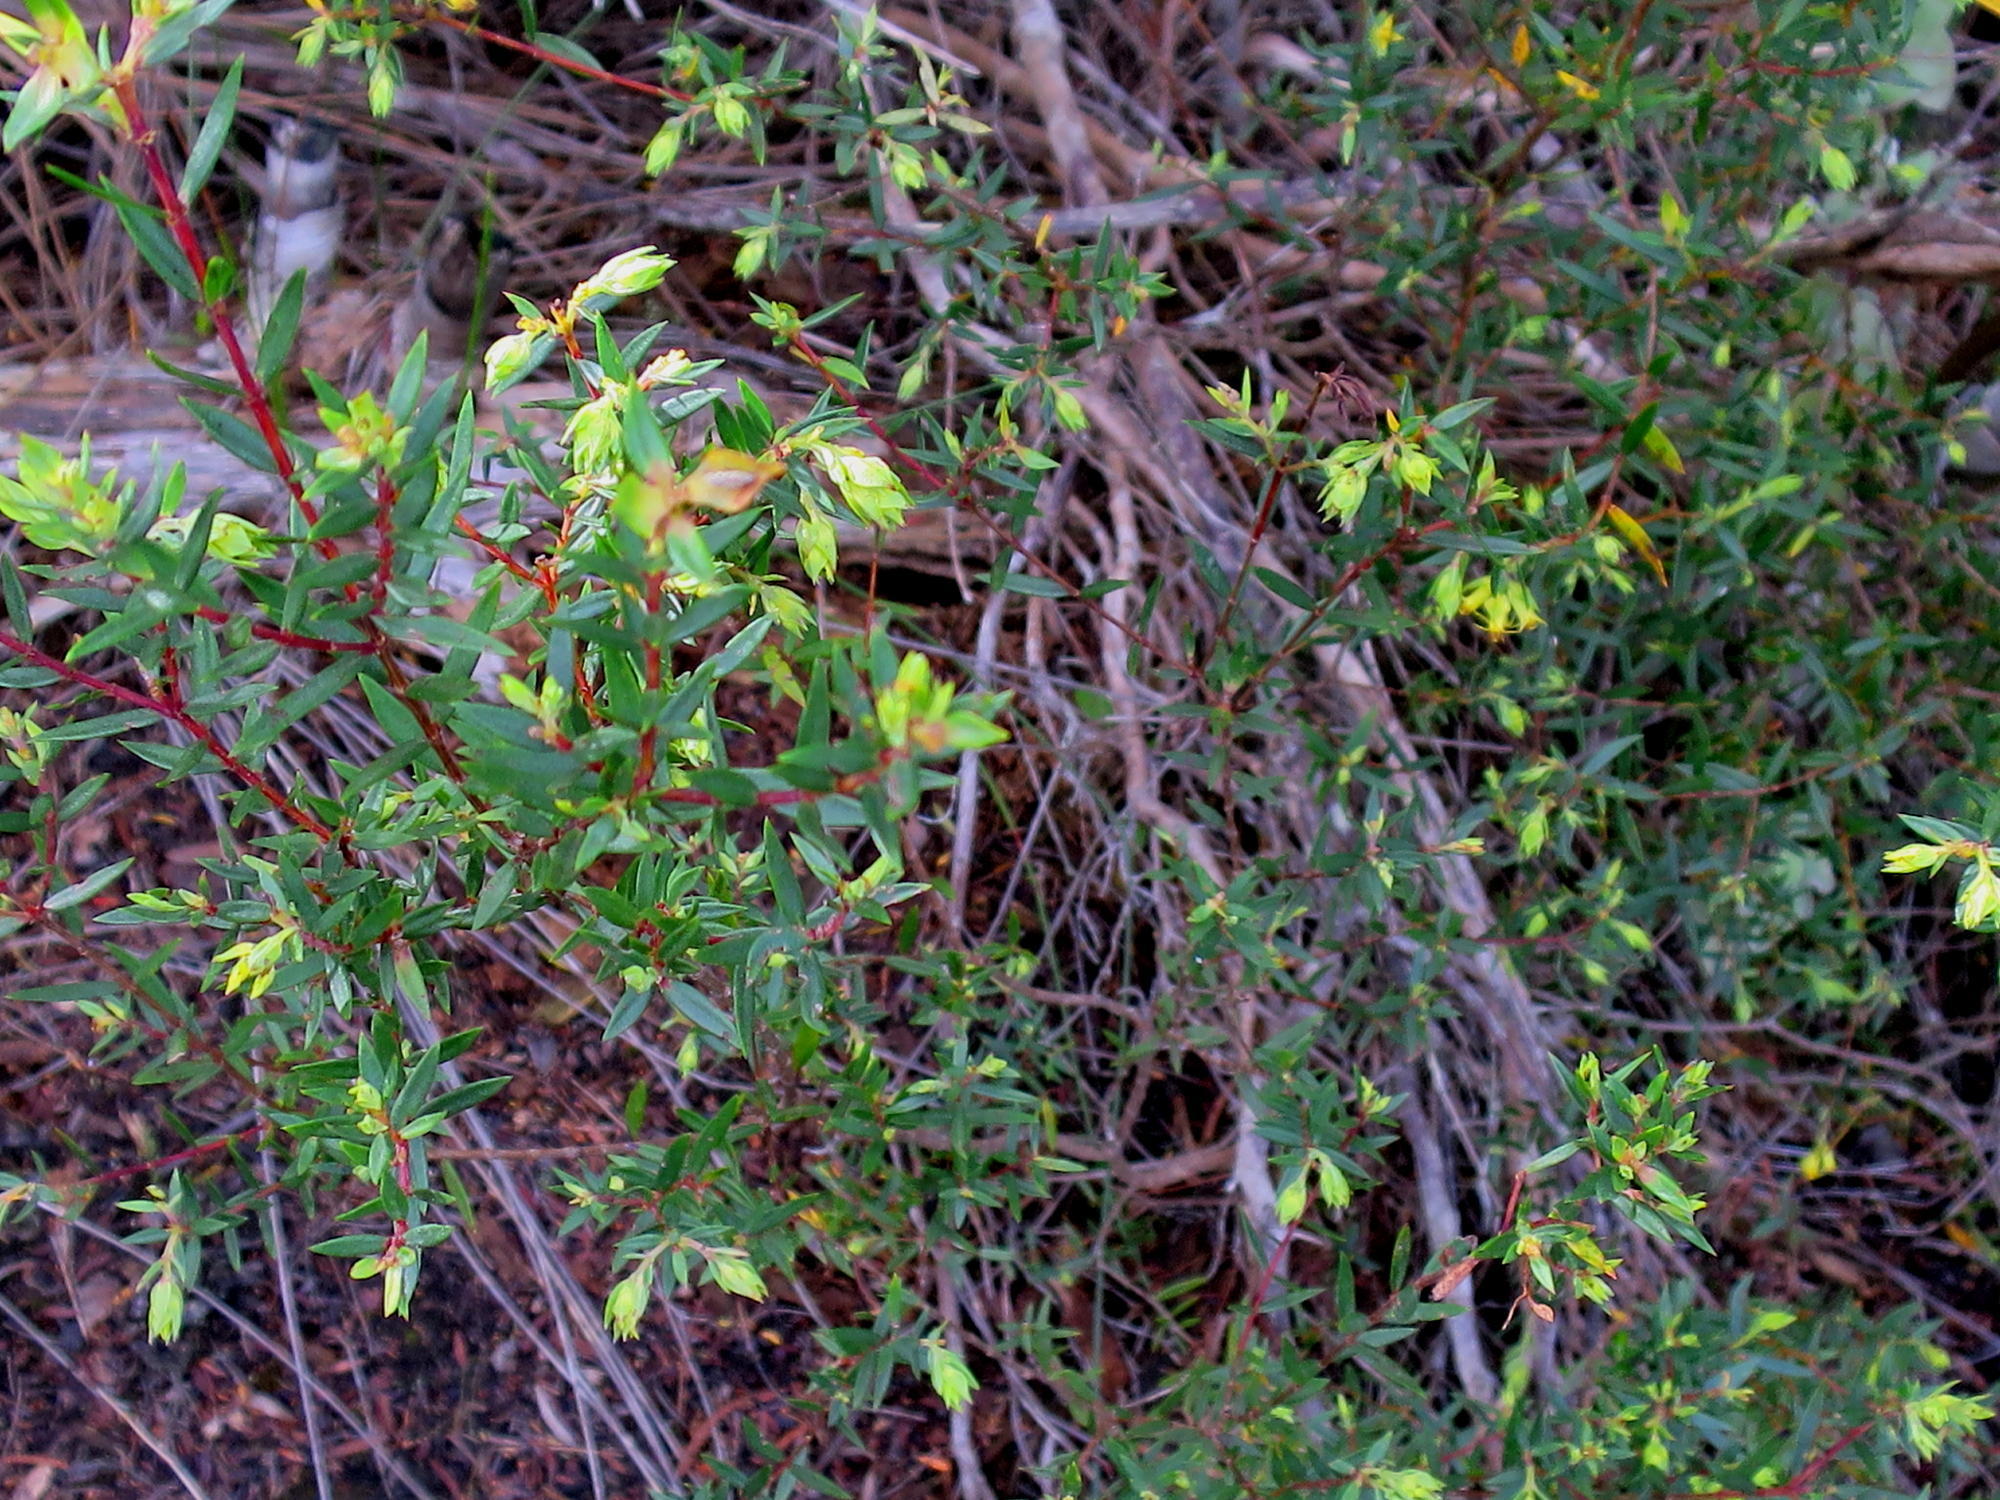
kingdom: Plantae
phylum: Tracheophyta
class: Magnoliopsida
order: Myrtales
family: Penaeaceae
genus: Penaea
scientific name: Penaea acutifolia
